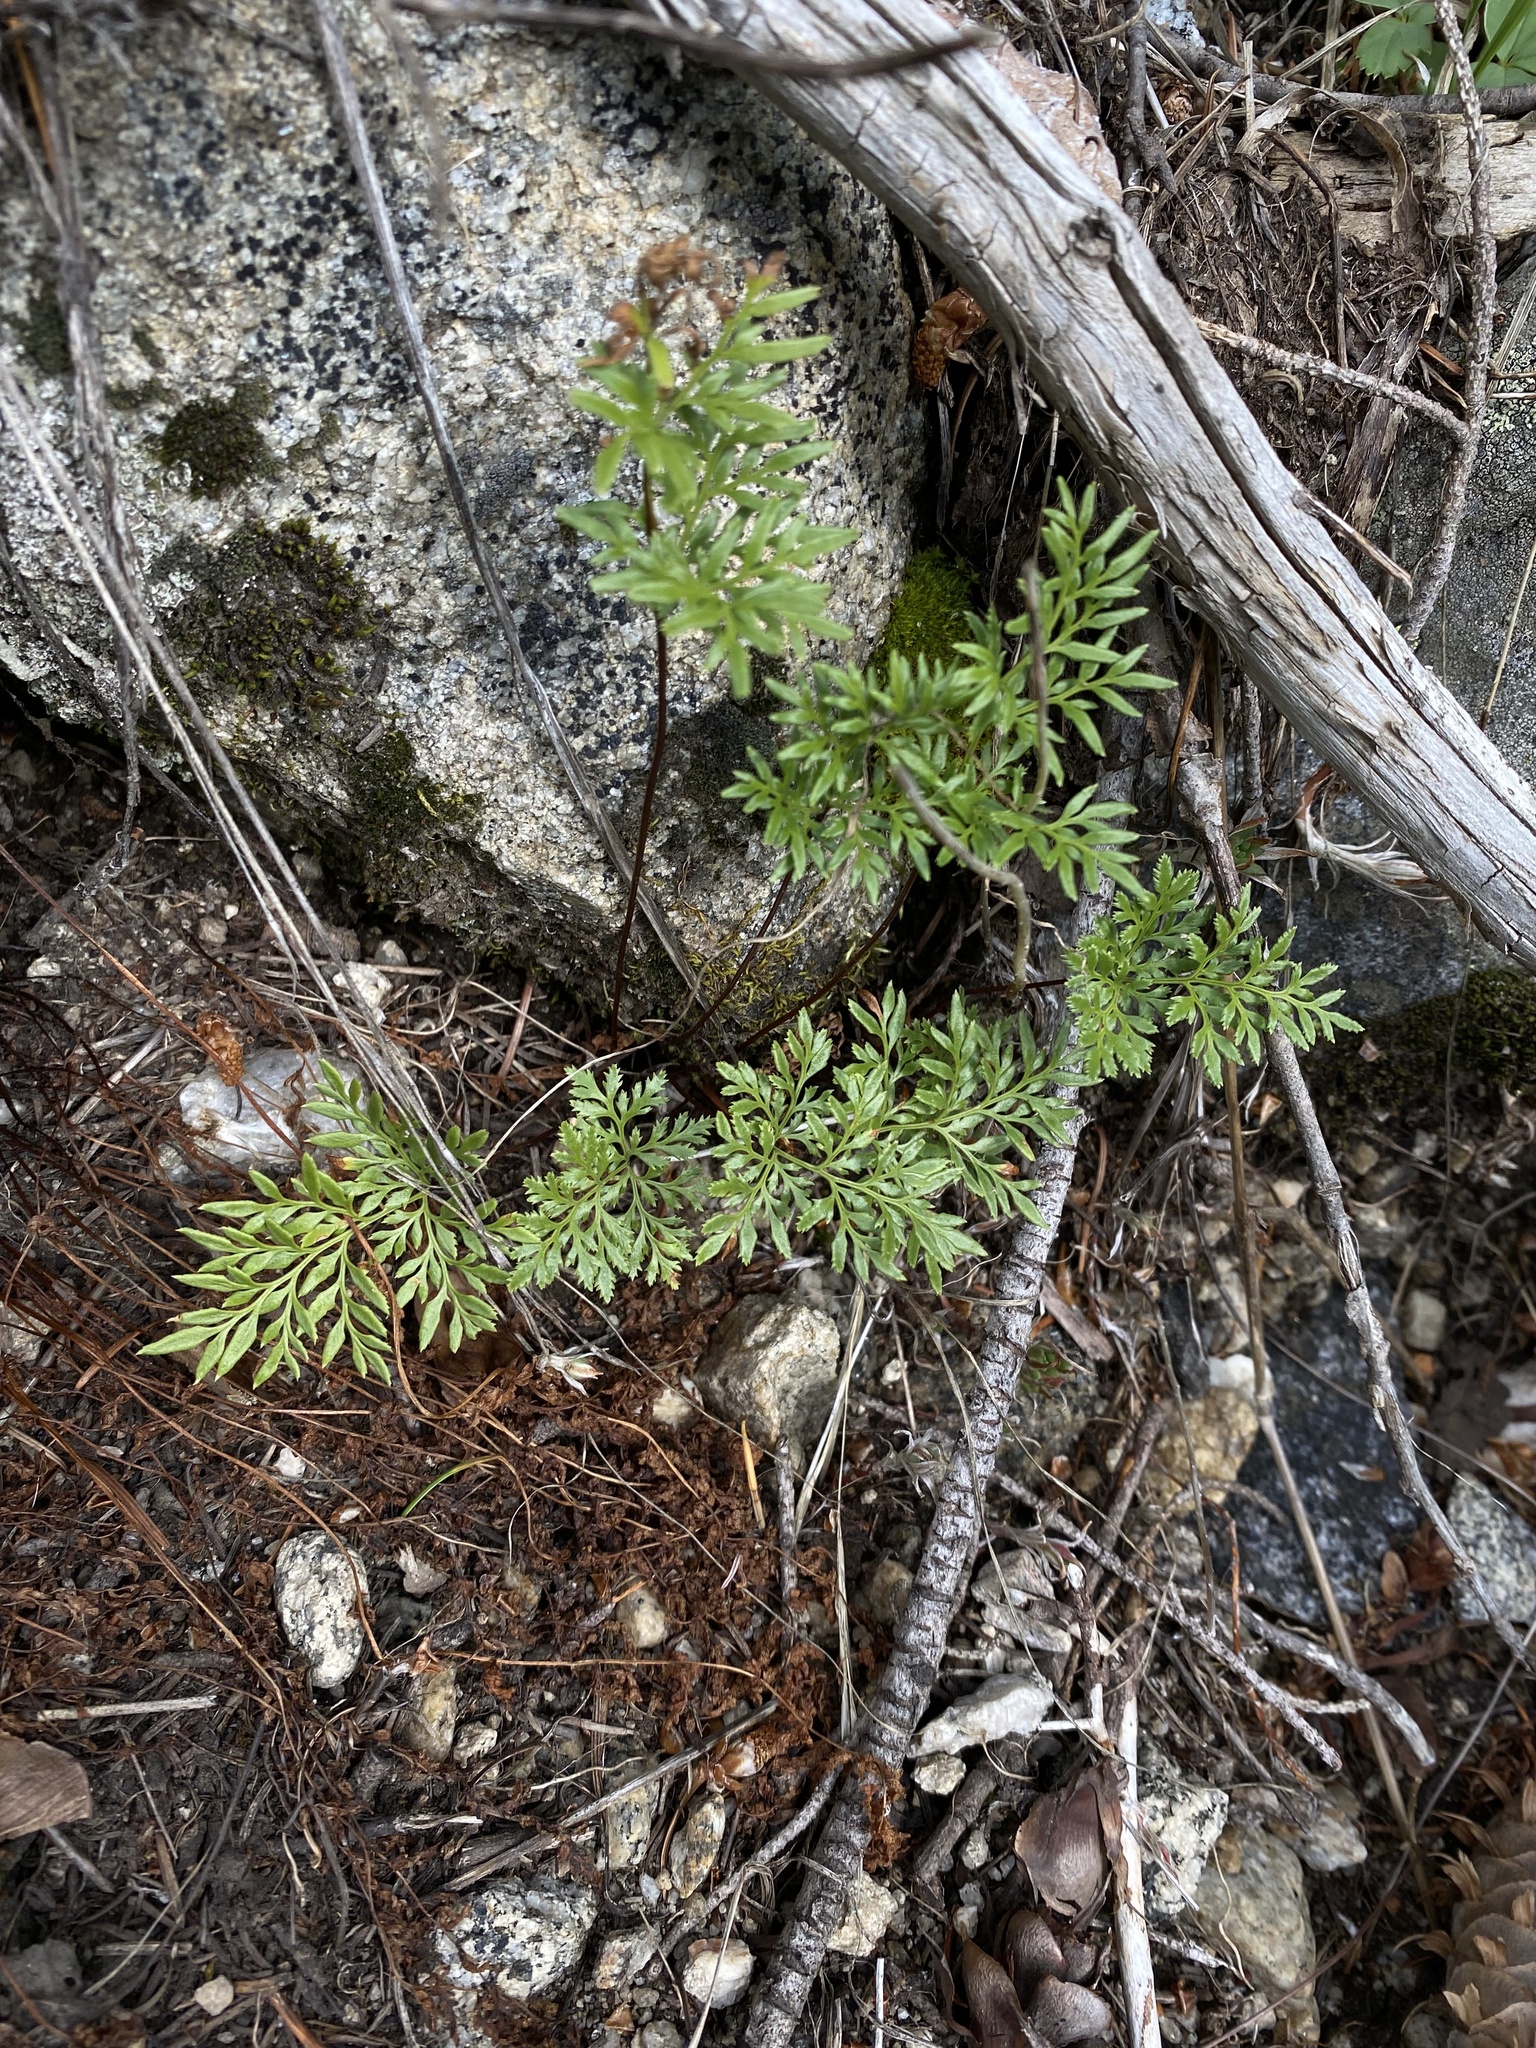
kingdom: Plantae
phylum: Tracheophyta
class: Polypodiopsida
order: Polypodiales
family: Pteridaceae
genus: Aspidotis
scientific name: Aspidotis densa
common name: Indian's dream
